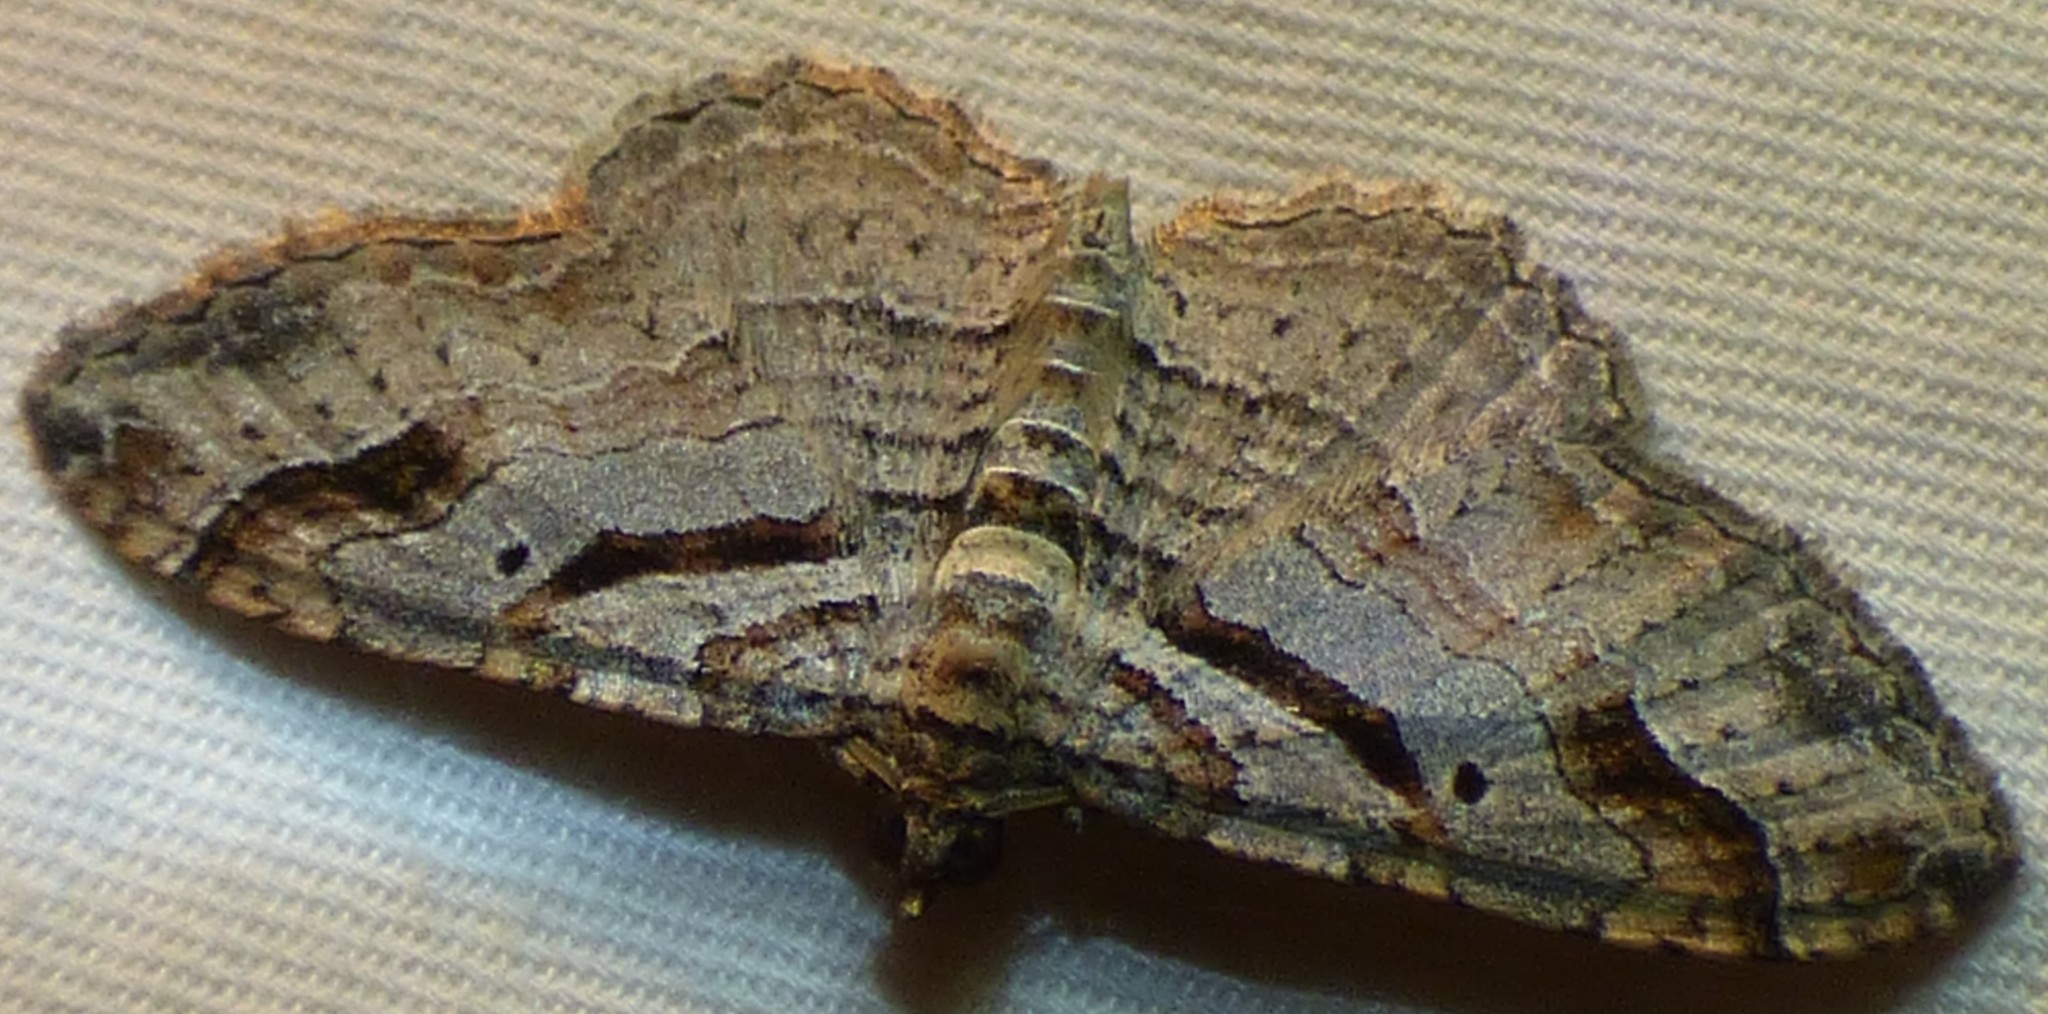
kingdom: Animalia
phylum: Arthropoda
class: Insecta
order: Lepidoptera
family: Geometridae
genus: Costaconvexa
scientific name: Costaconvexa centrostrigaria
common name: Bent-line carpet
